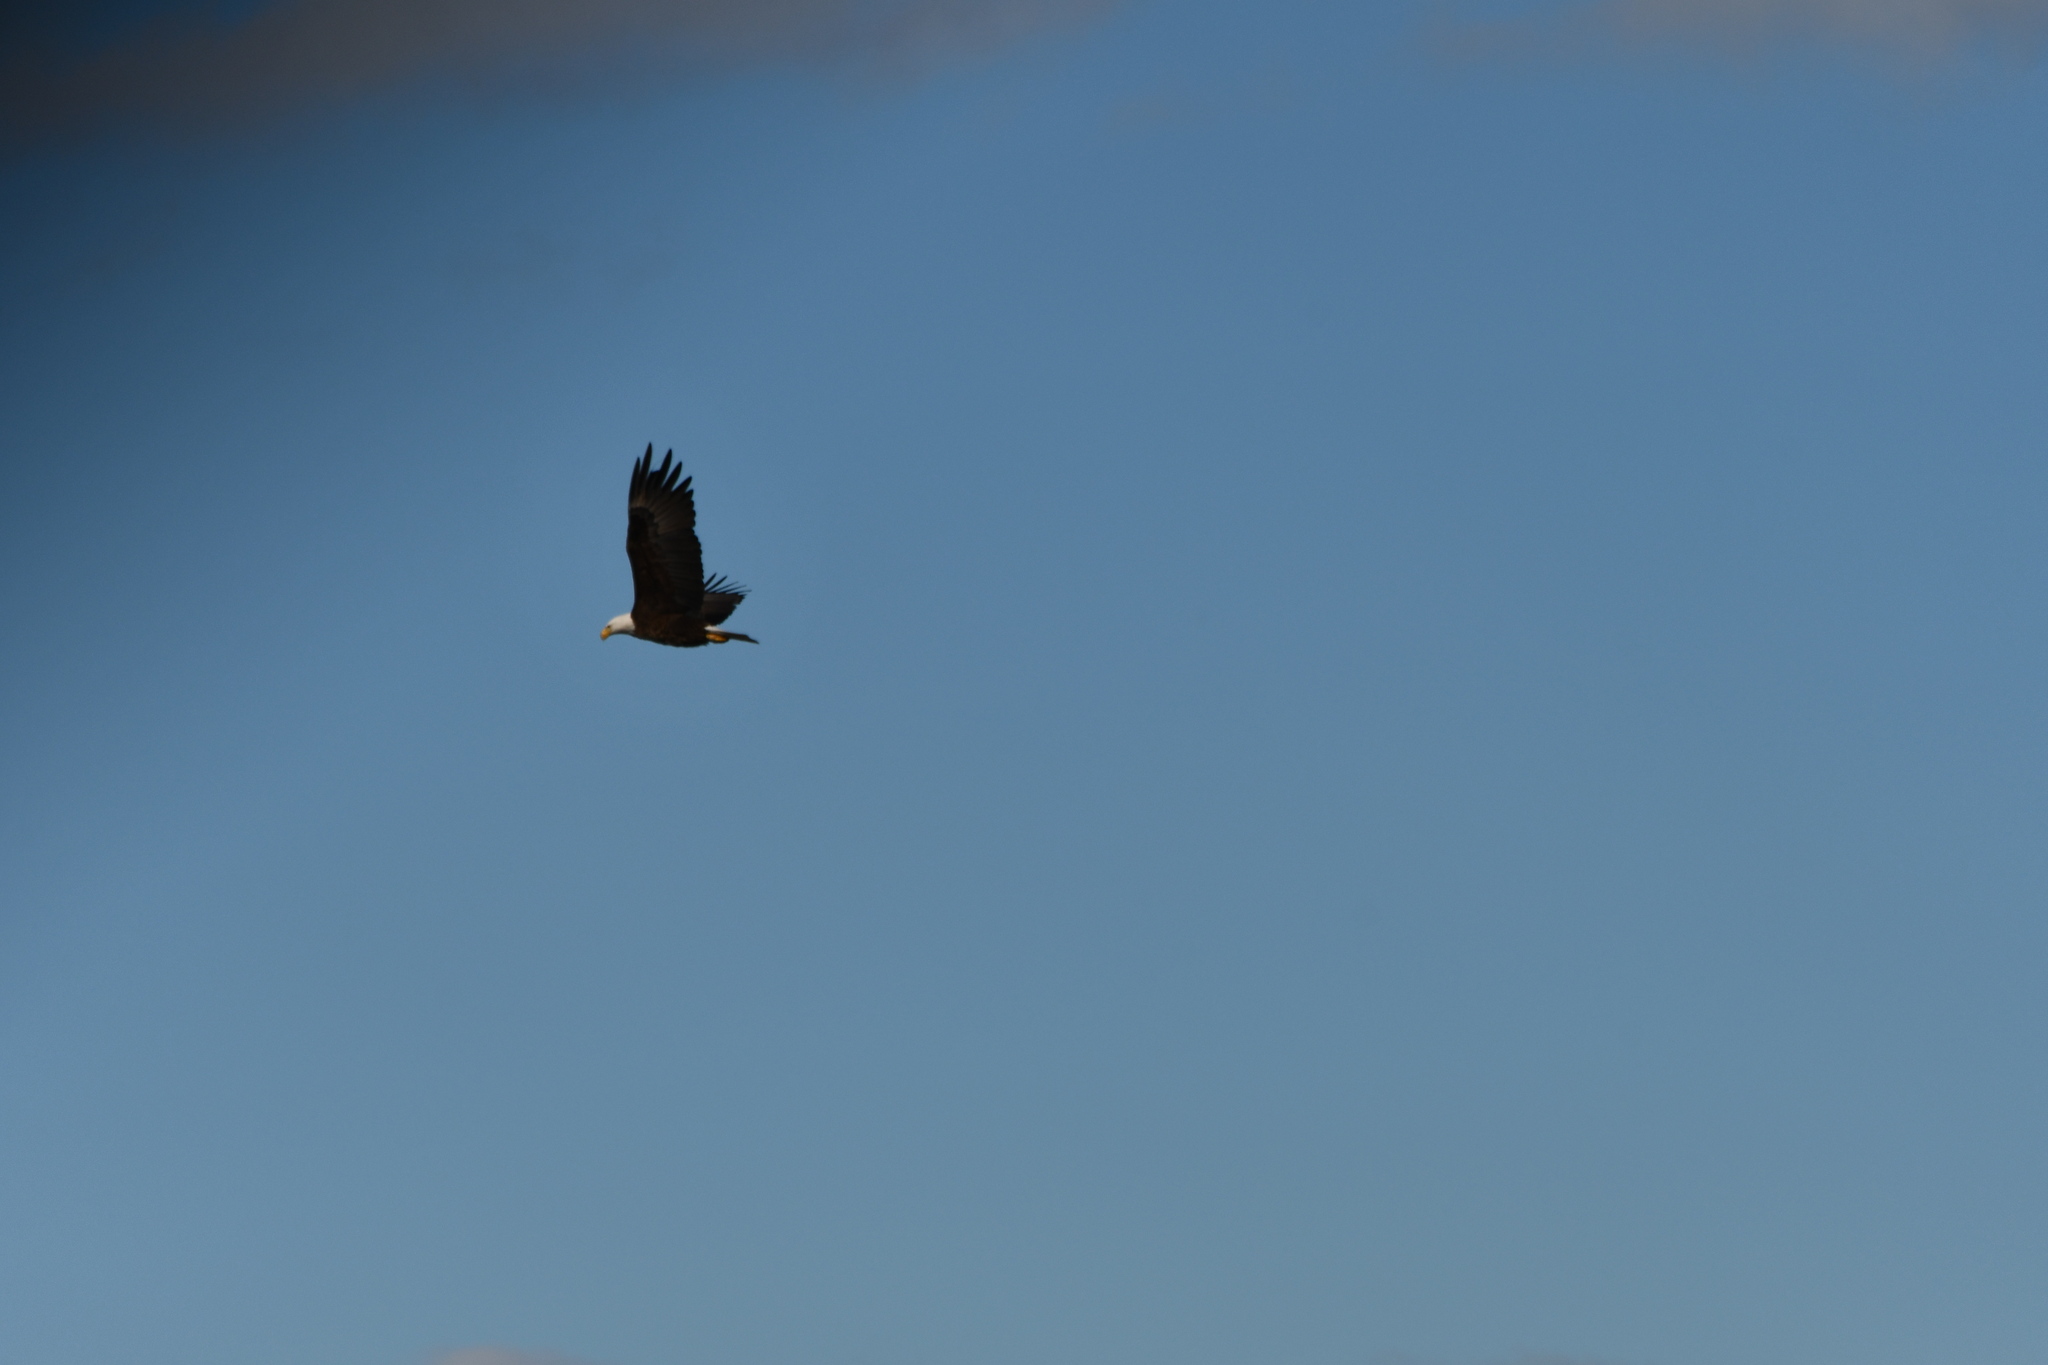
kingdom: Animalia
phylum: Chordata
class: Aves
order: Accipitriformes
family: Accipitridae
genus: Haliaeetus
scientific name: Haliaeetus leucocephalus
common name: Bald eagle
